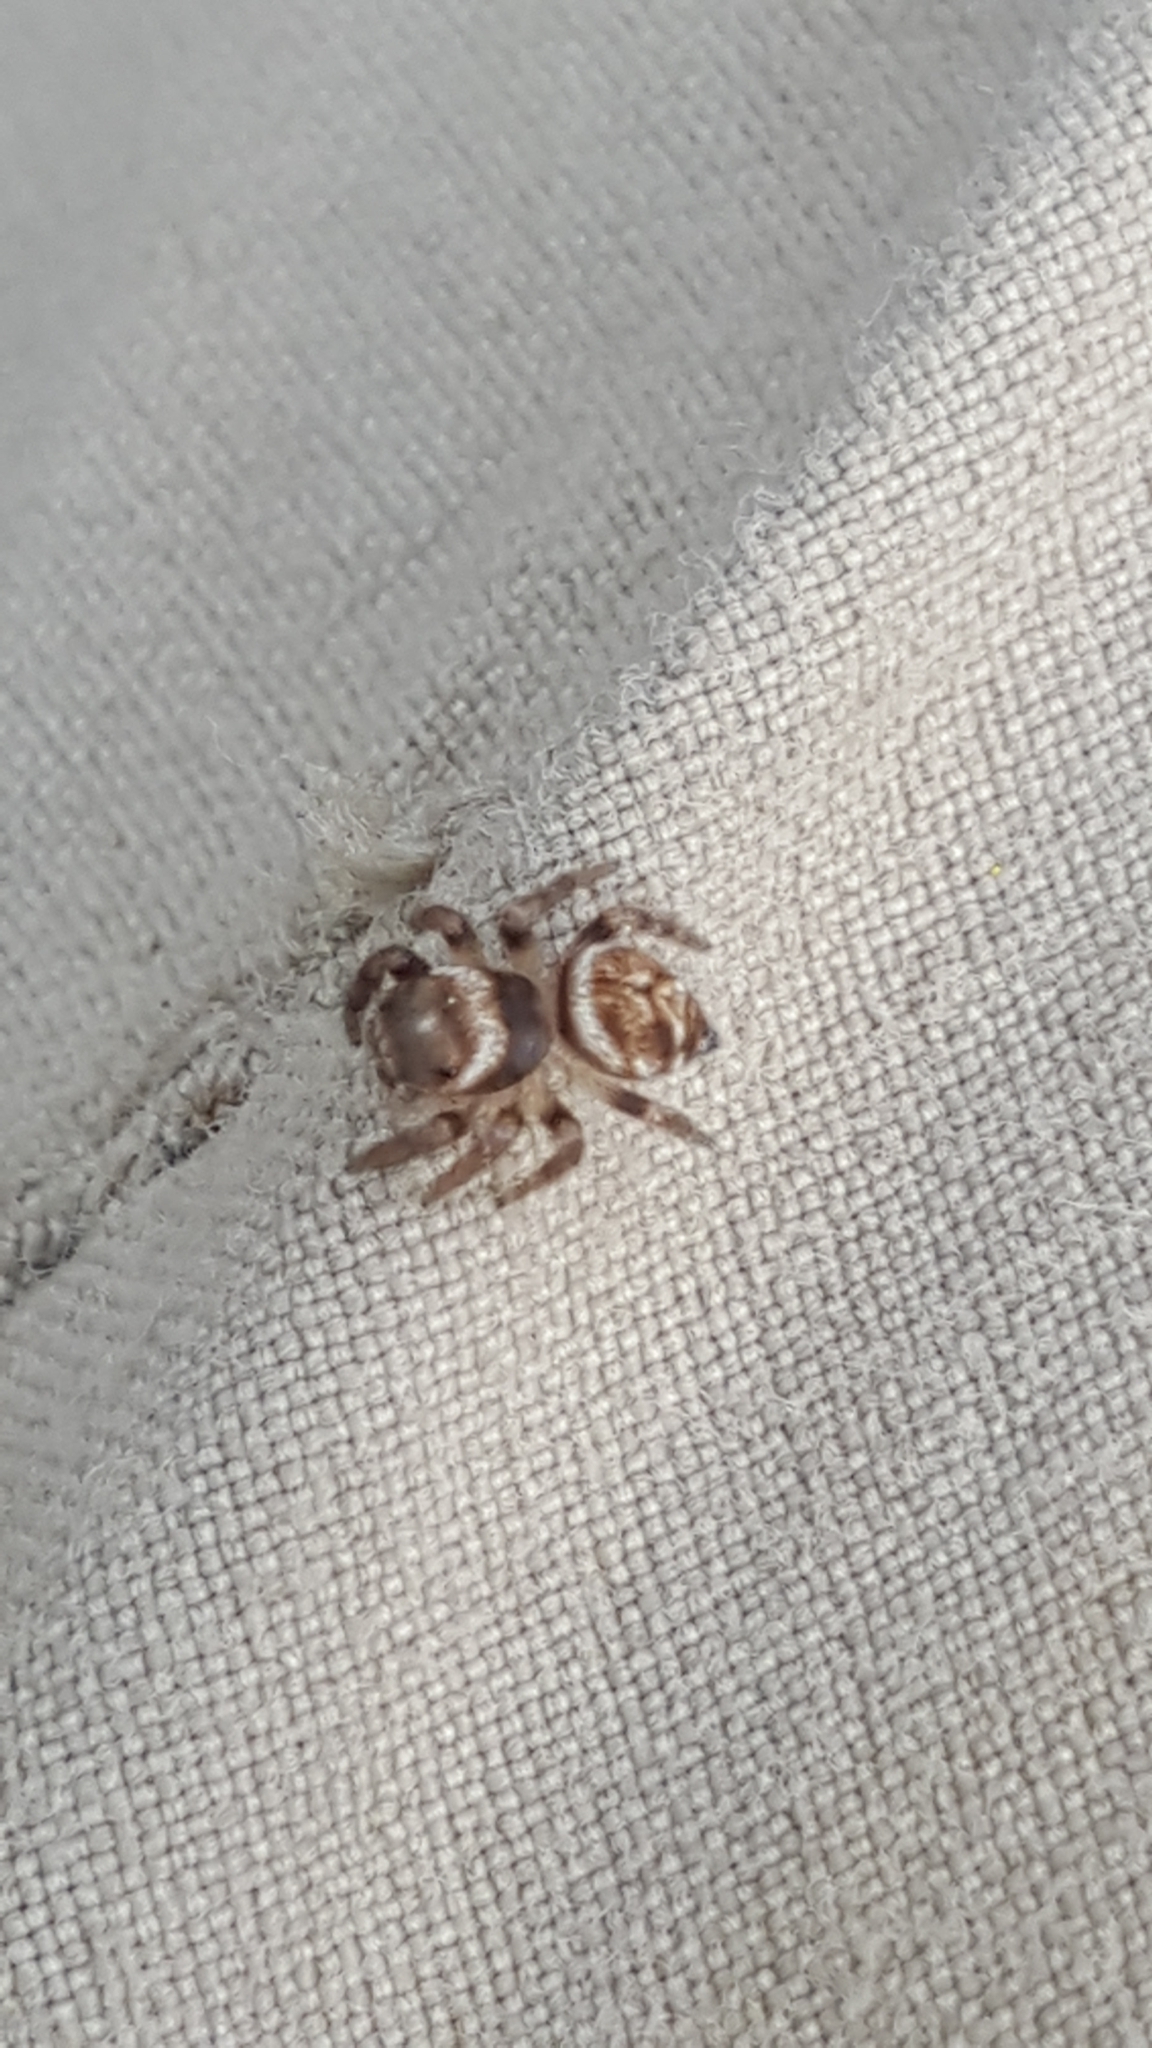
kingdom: Animalia
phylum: Arthropoda
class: Arachnida
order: Araneae
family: Salticidae
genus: Evarcha
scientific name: Evarcha hoyi
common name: Hoy's jumping spider
